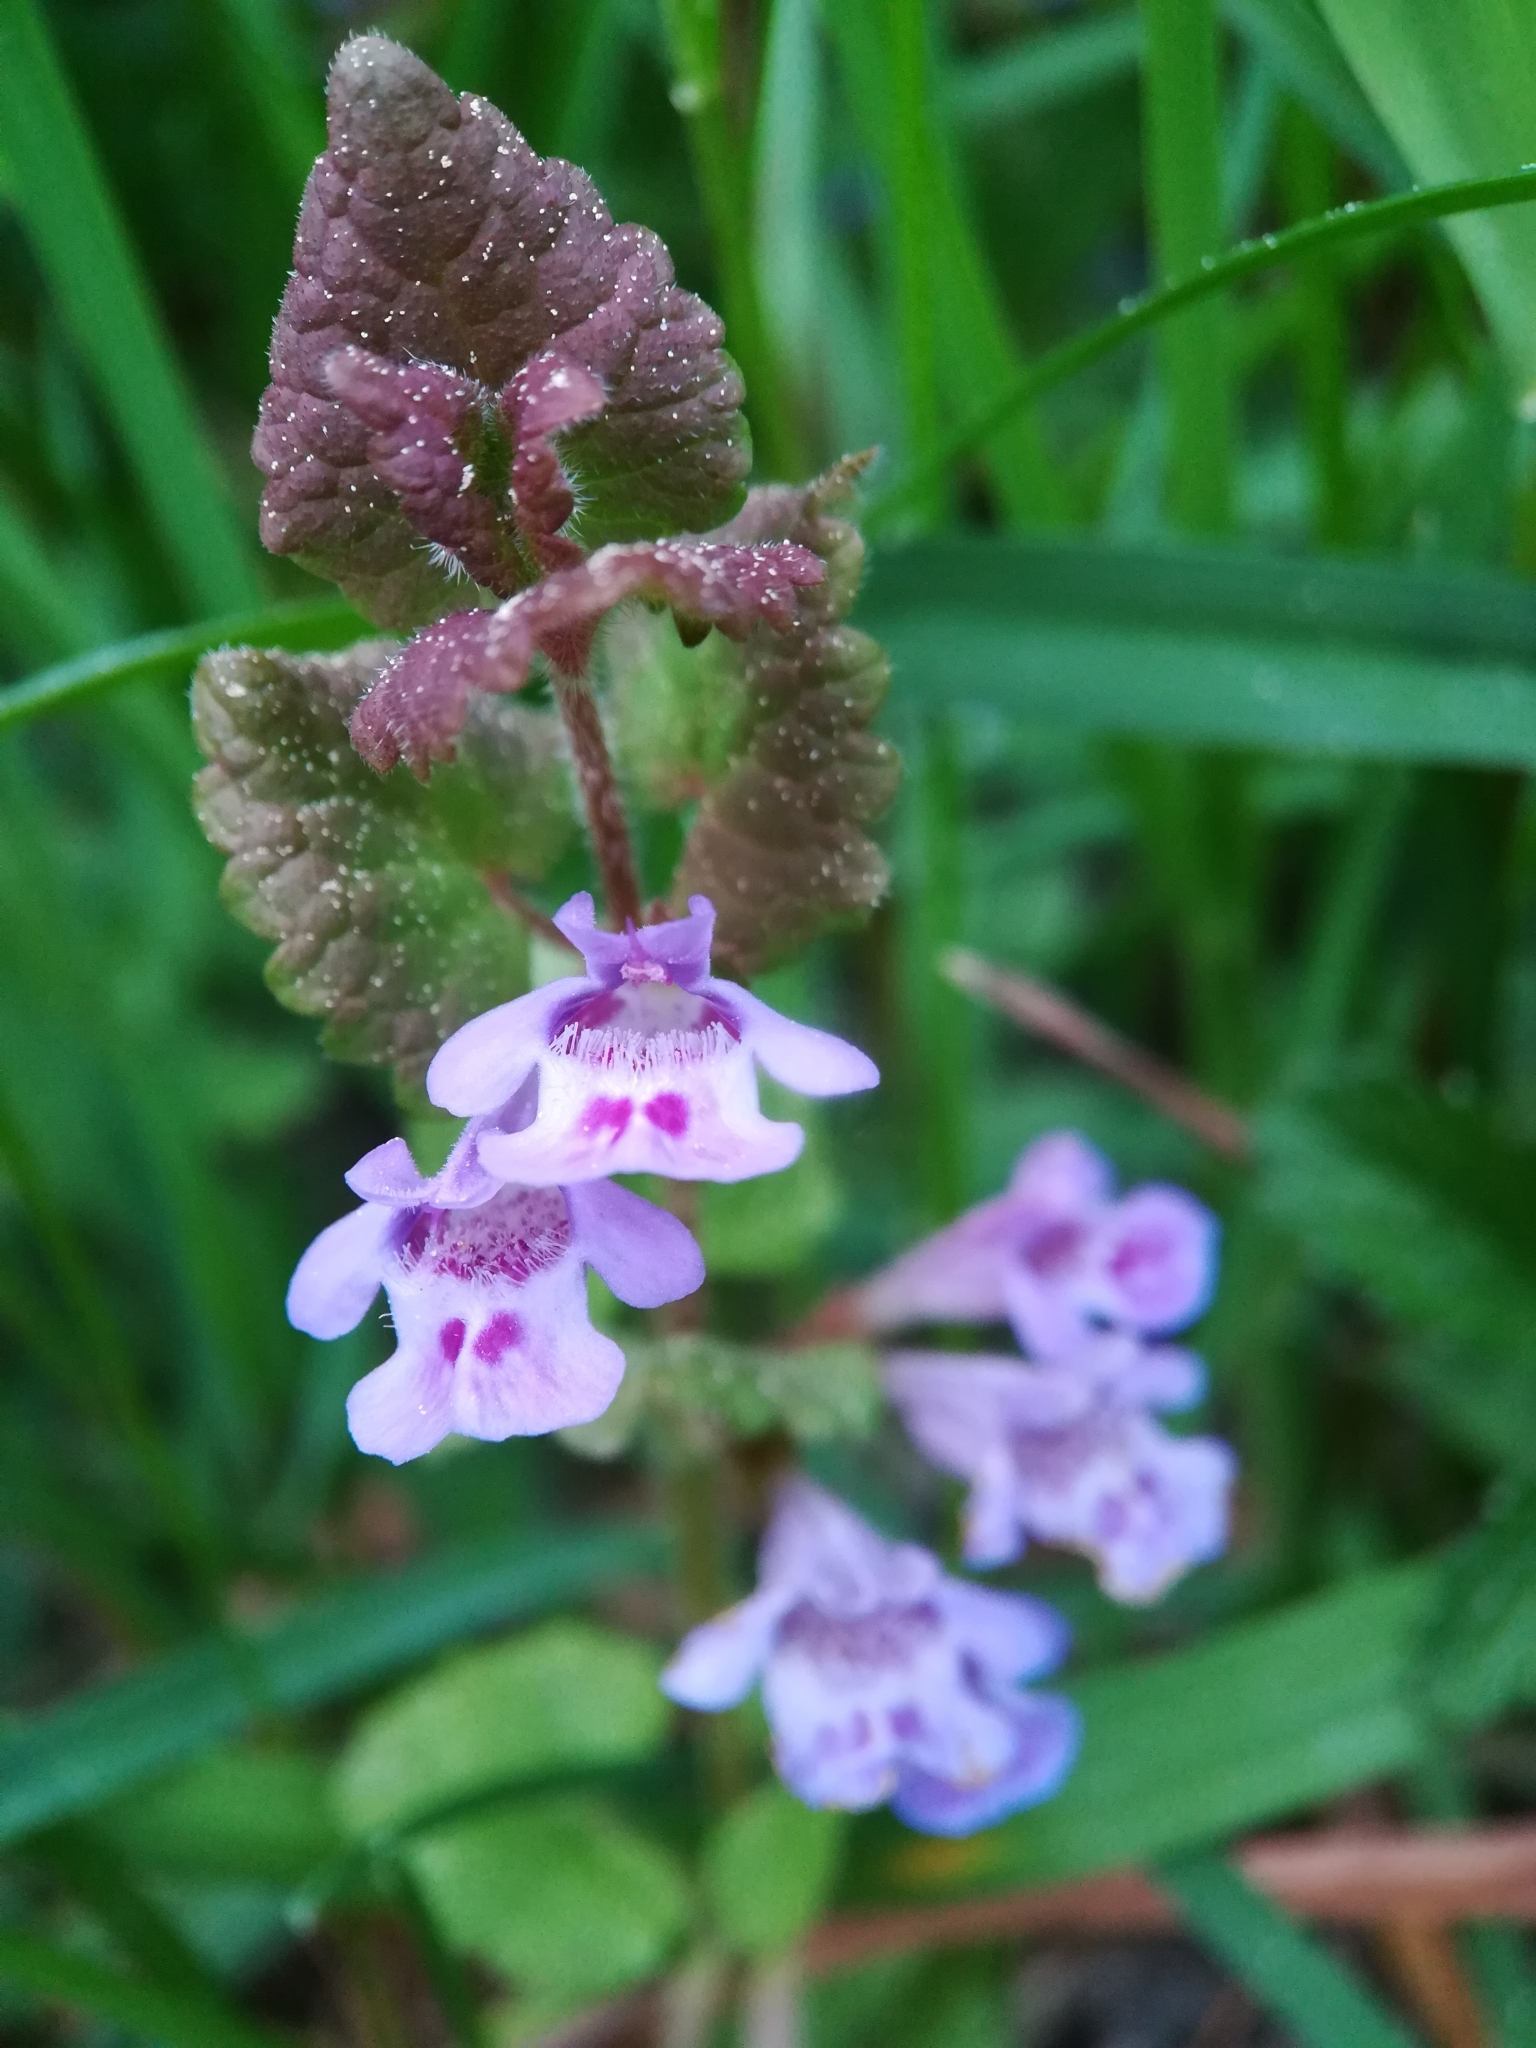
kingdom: Plantae
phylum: Tracheophyta
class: Magnoliopsida
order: Lamiales
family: Lamiaceae
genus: Glechoma
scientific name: Glechoma hederacea
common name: Ground ivy
